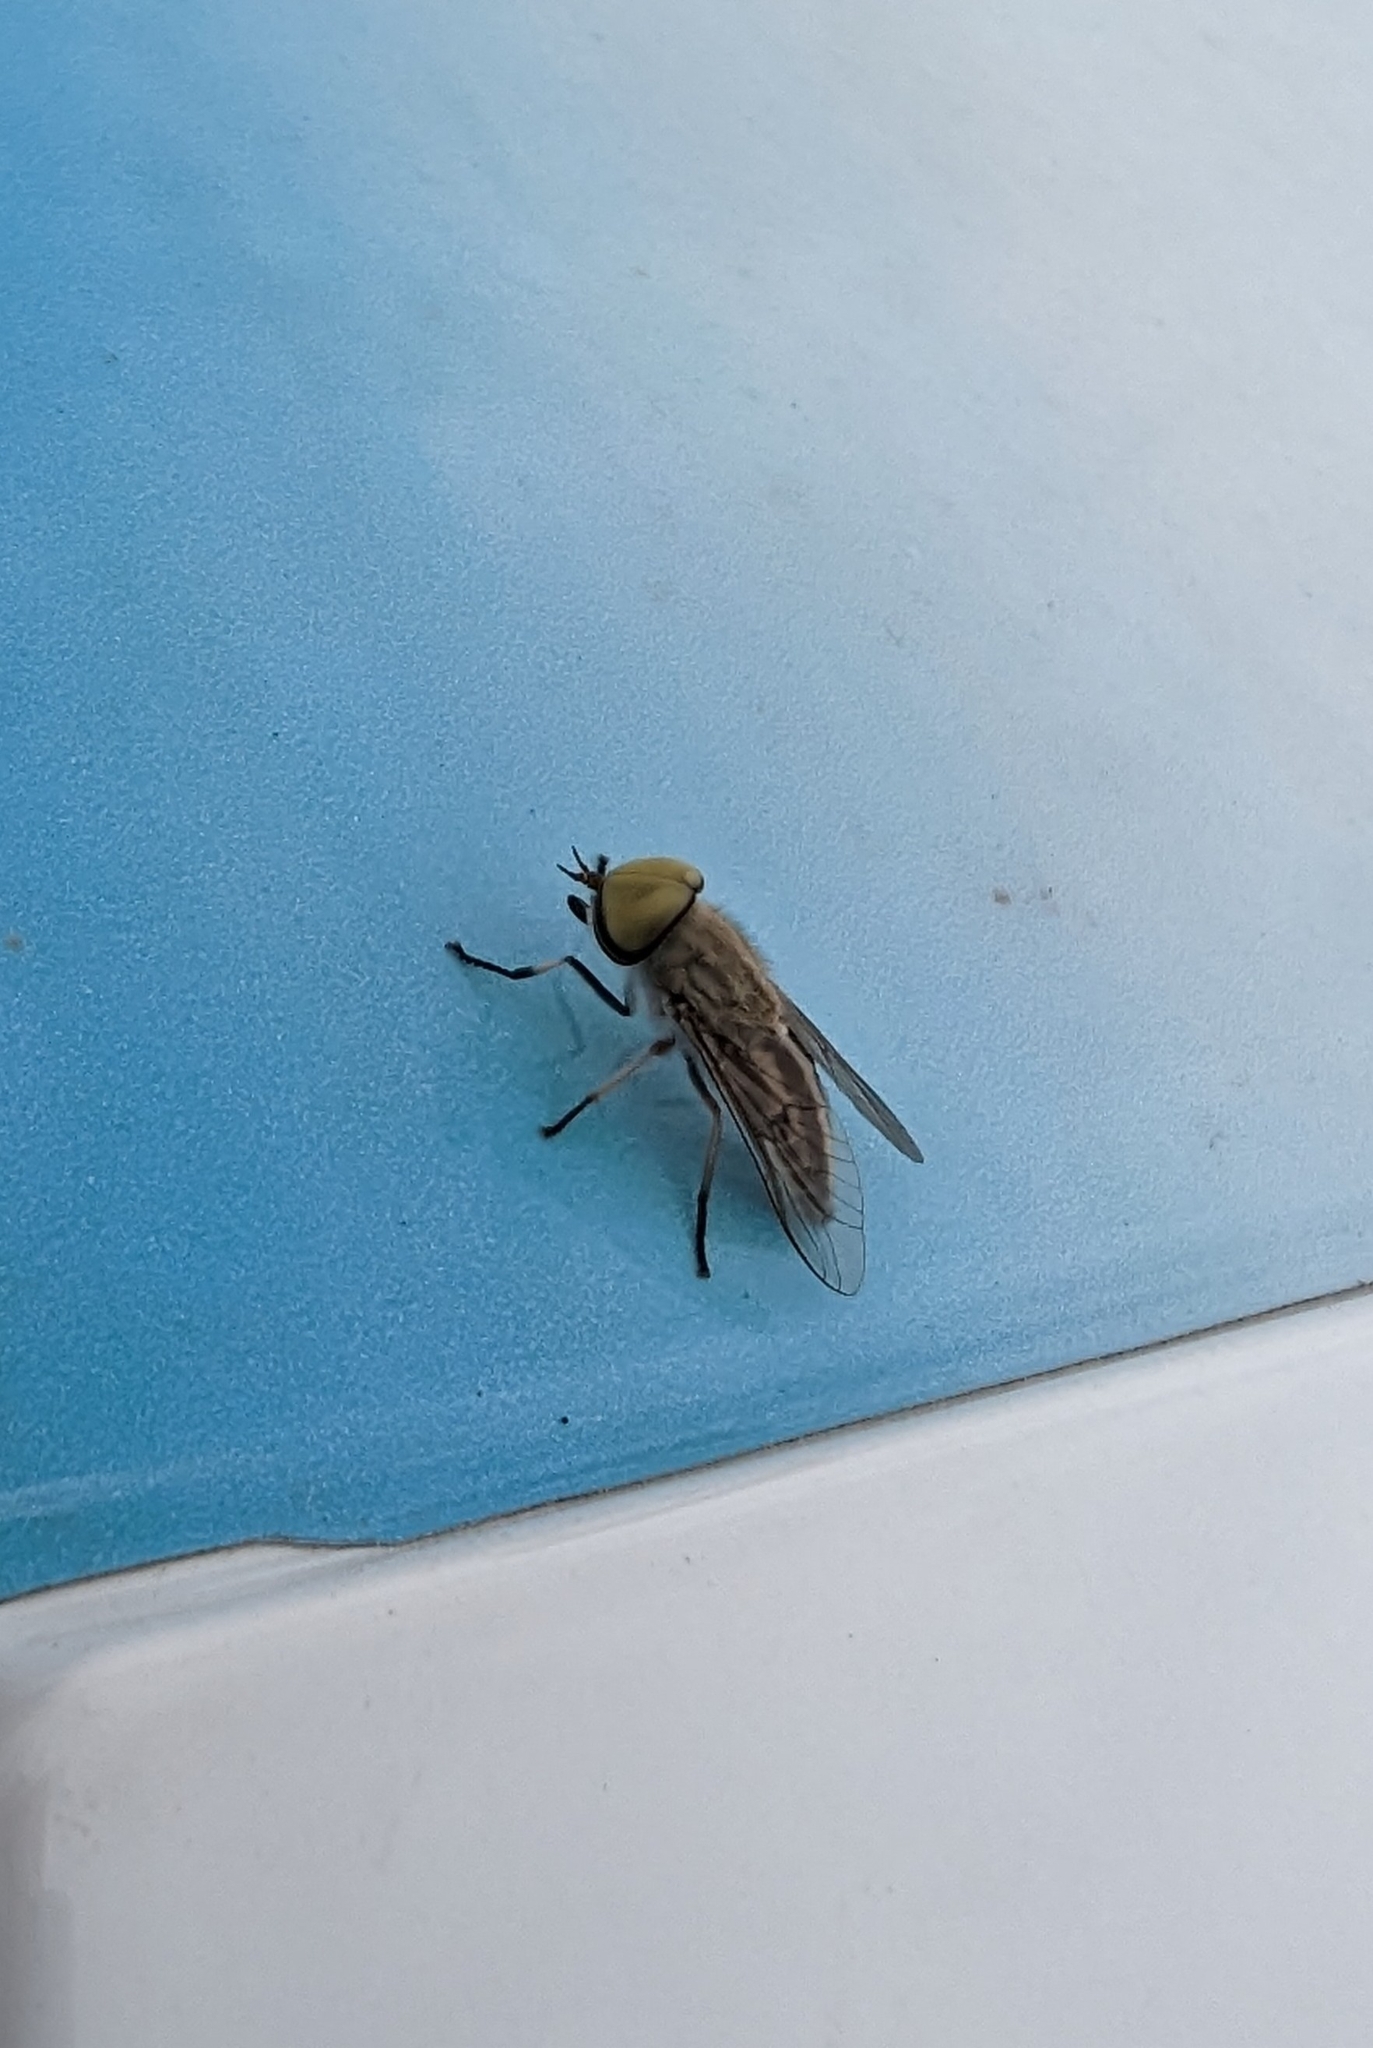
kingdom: Animalia
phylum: Arthropoda
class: Insecta
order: Diptera
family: Tabanidae
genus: Tabanus
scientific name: Tabanus lineola
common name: Striped horse fly
